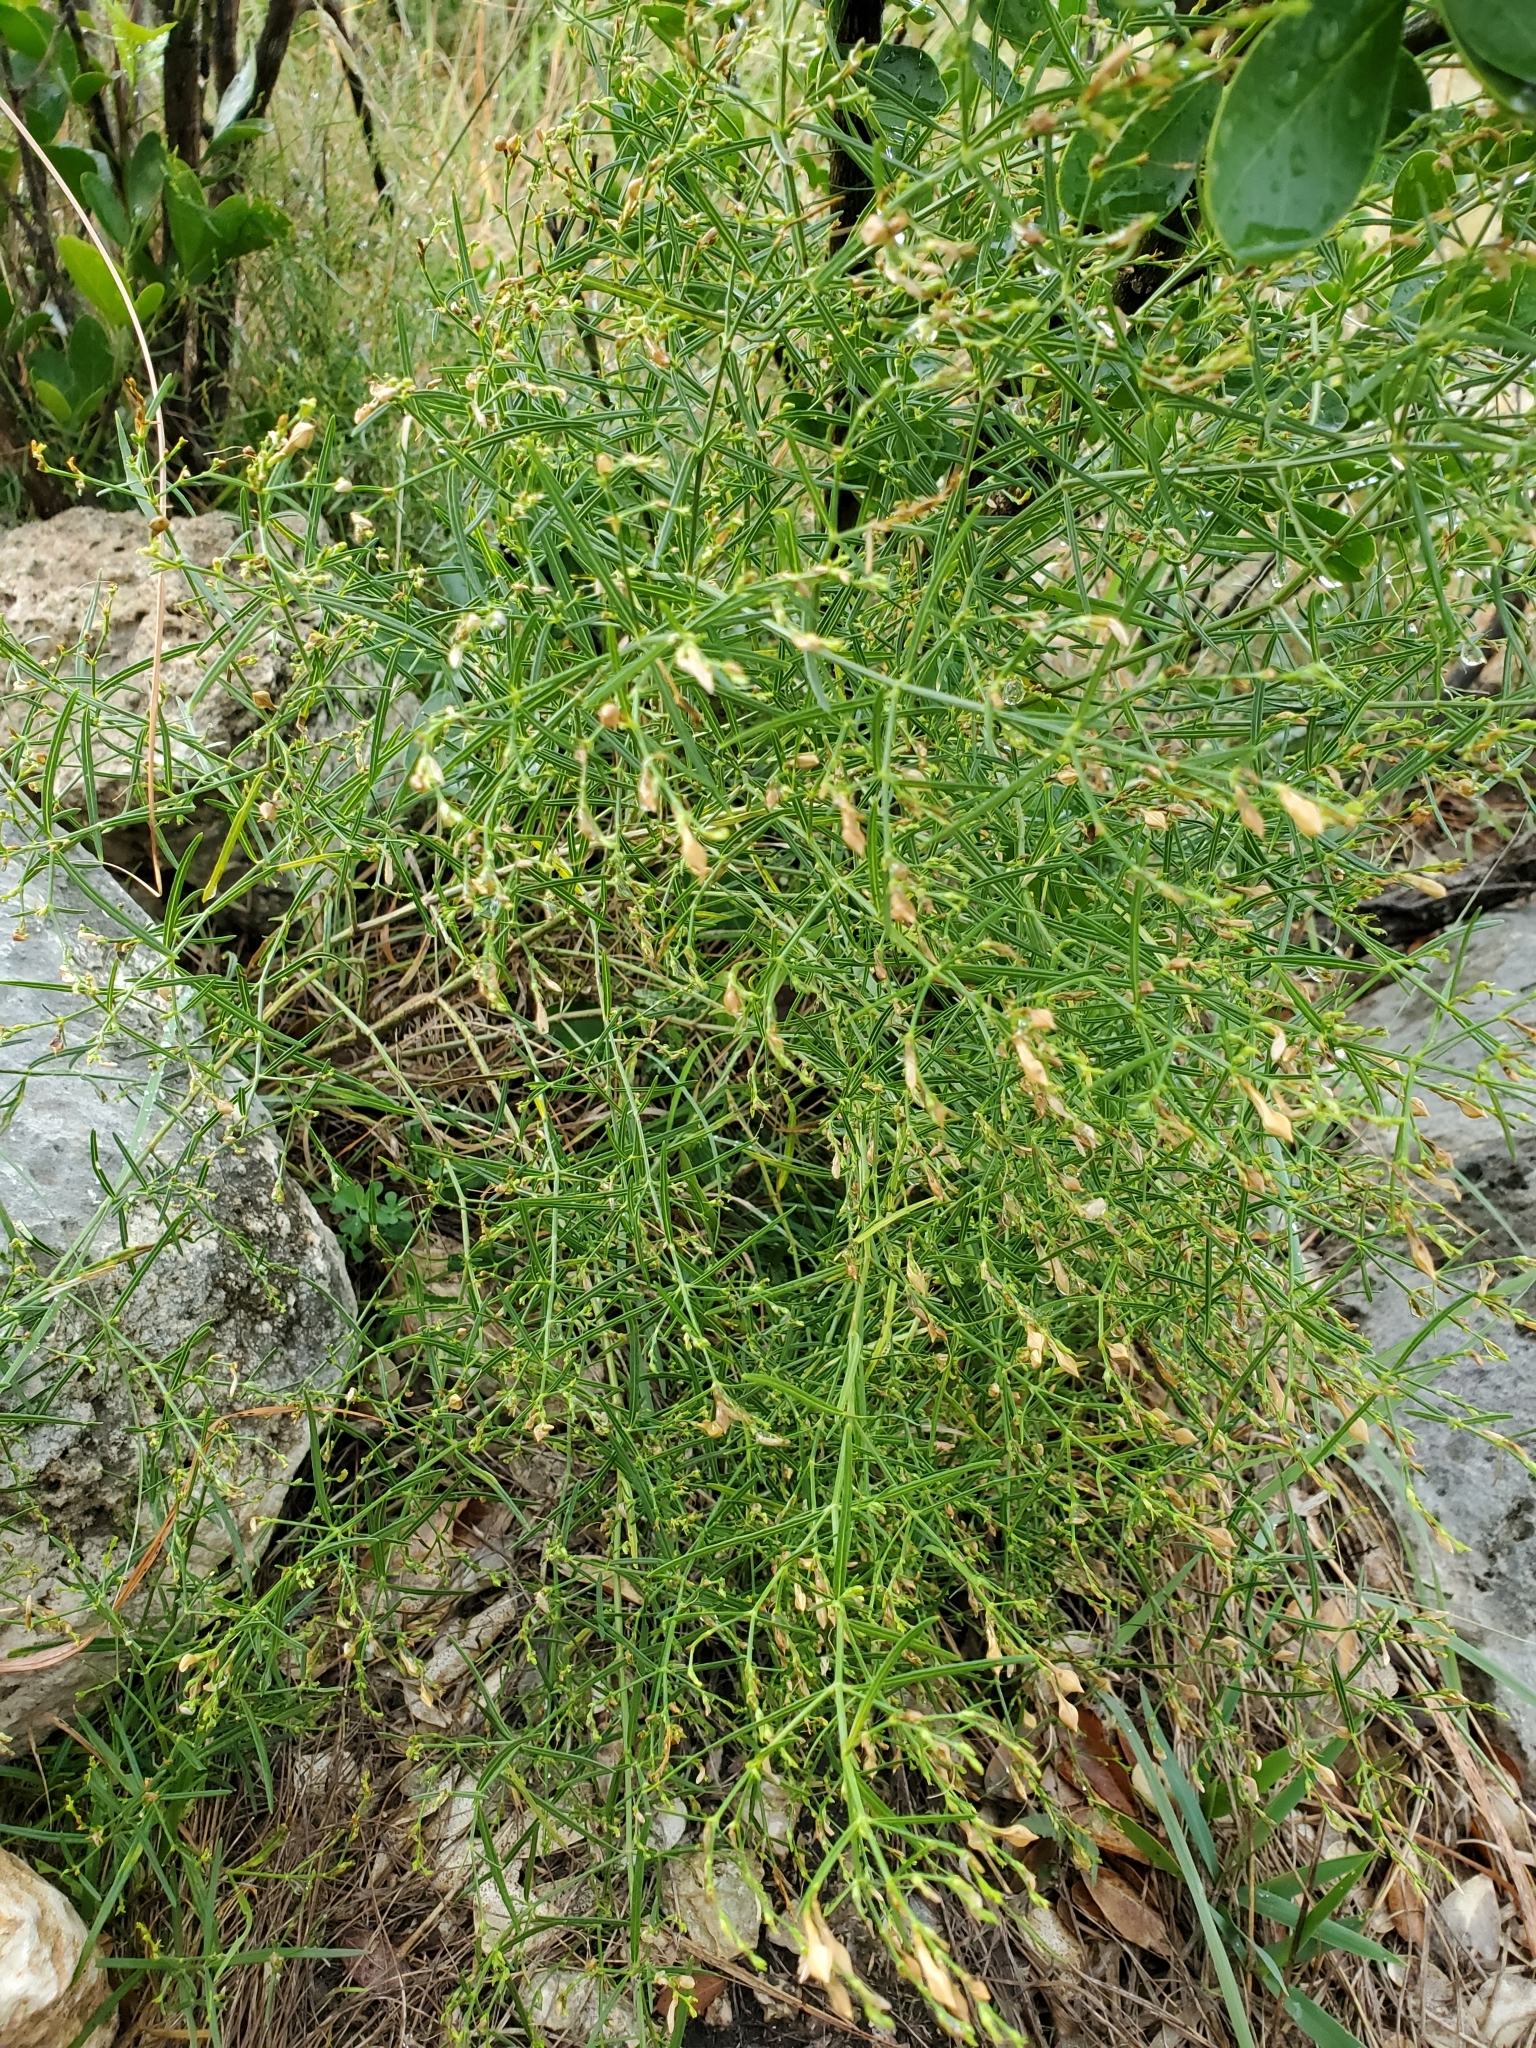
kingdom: Plantae
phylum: Tracheophyta
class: Magnoliopsida
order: Lamiales
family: Acanthaceae
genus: Carlowrightia
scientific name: Carlowrightia linearifolia
